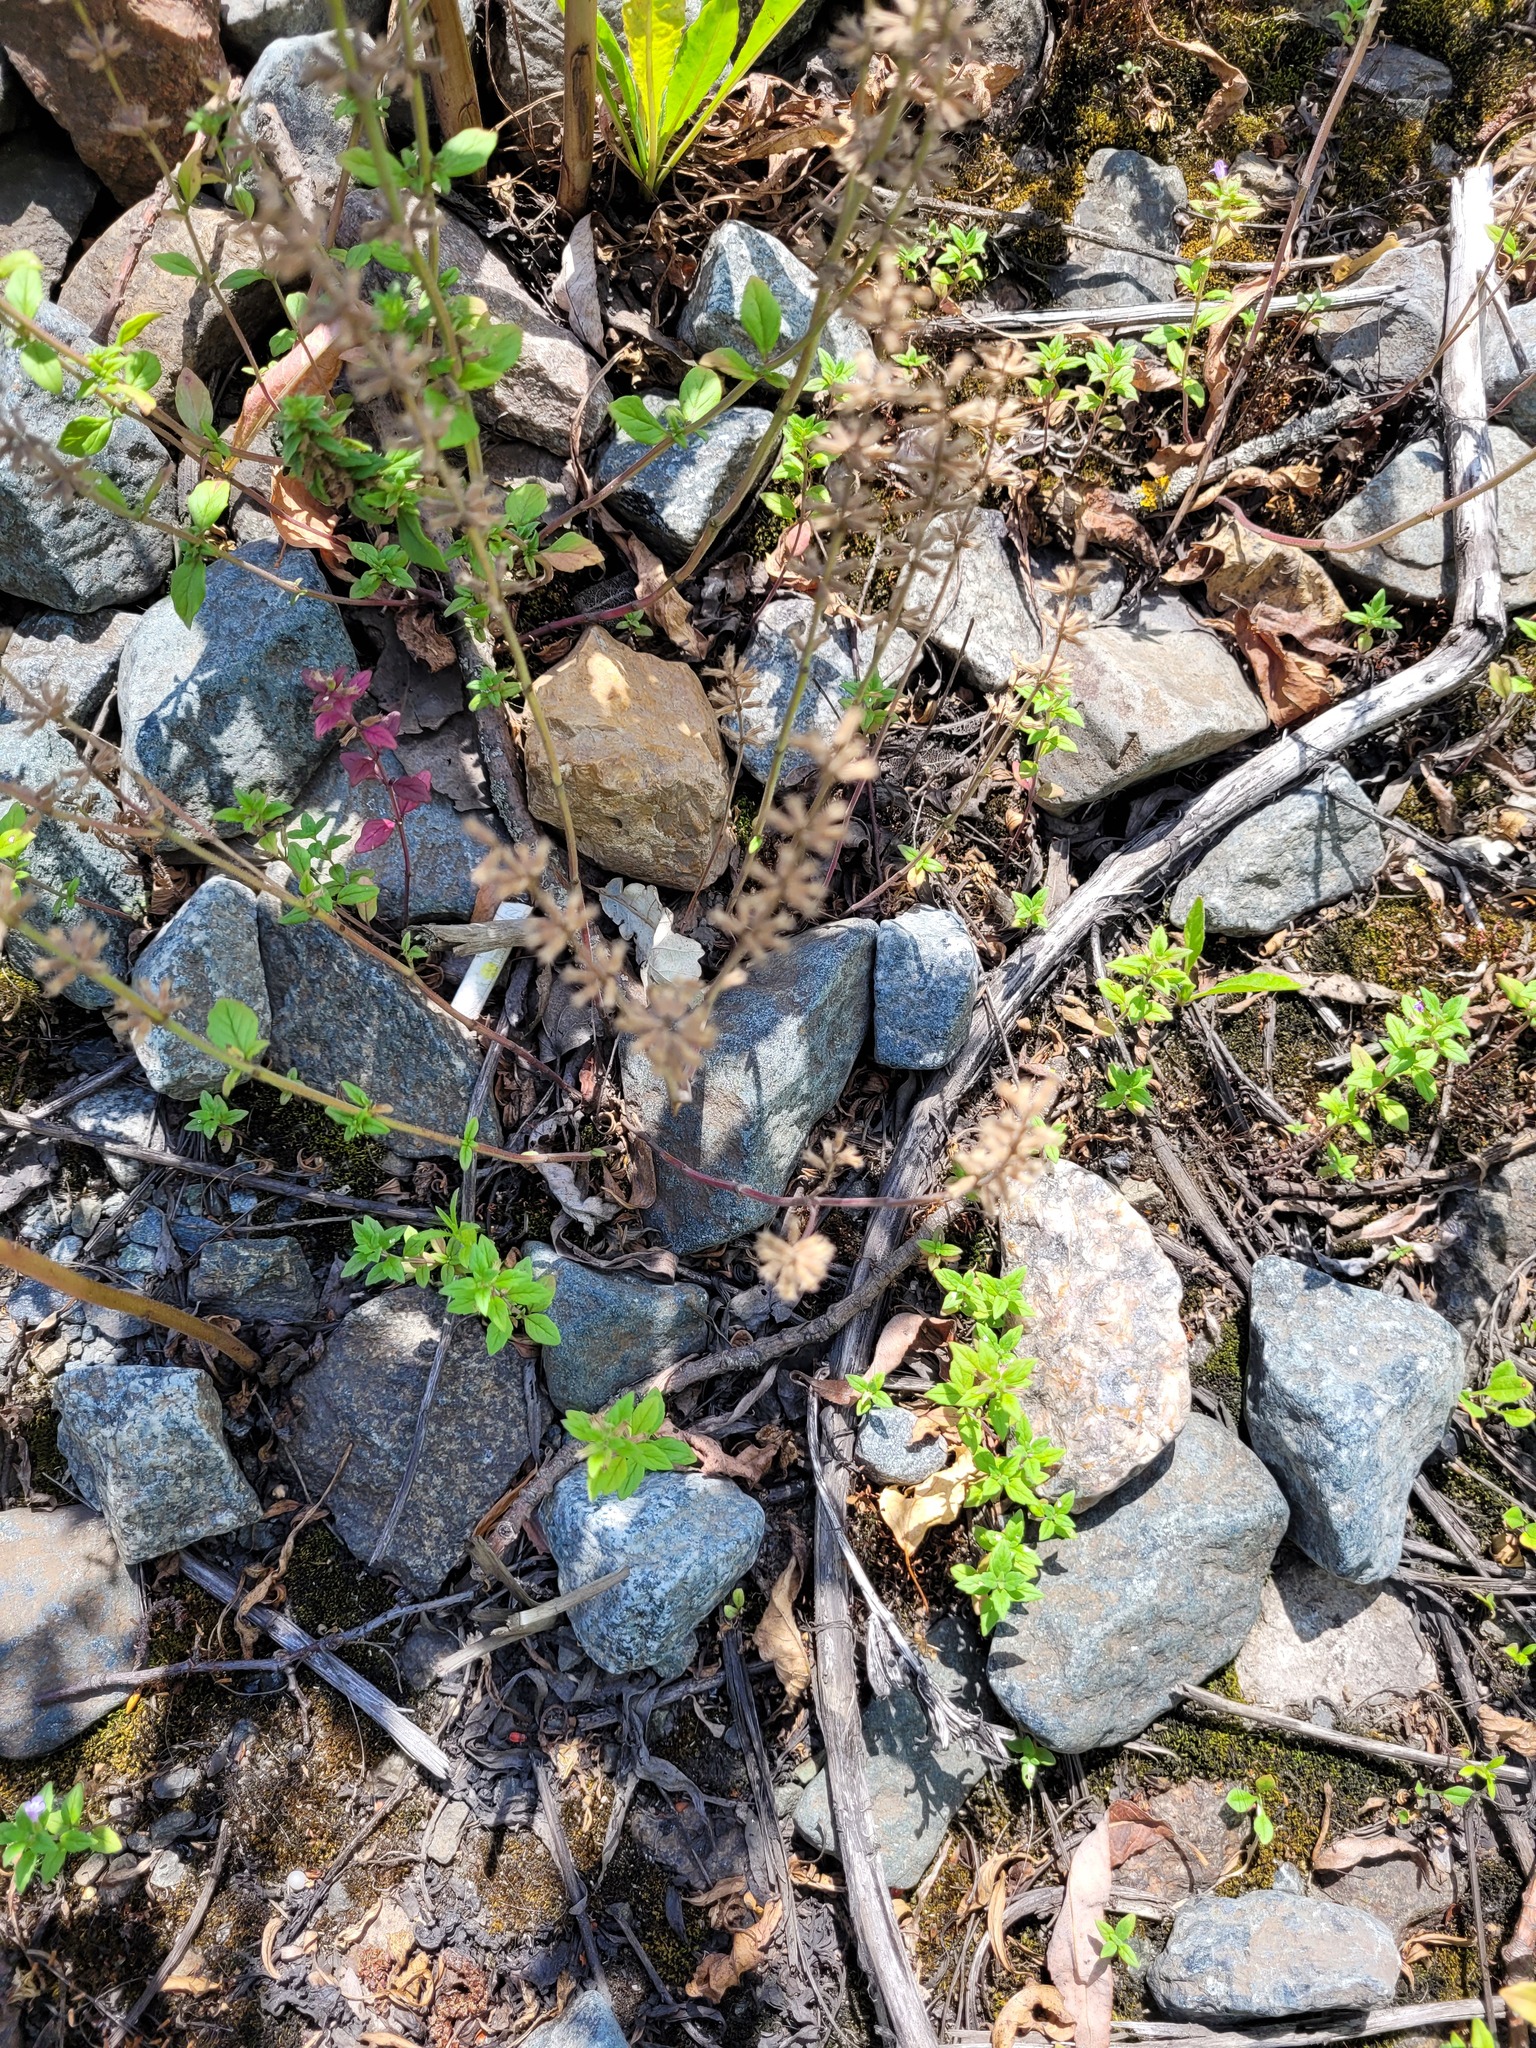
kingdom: Plantae
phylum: Tracheophyta
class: Magnoliopsida
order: Lamiales
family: Lamiaceae
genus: Clinopodium
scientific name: Clinopodium acinos
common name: Basil thyme
